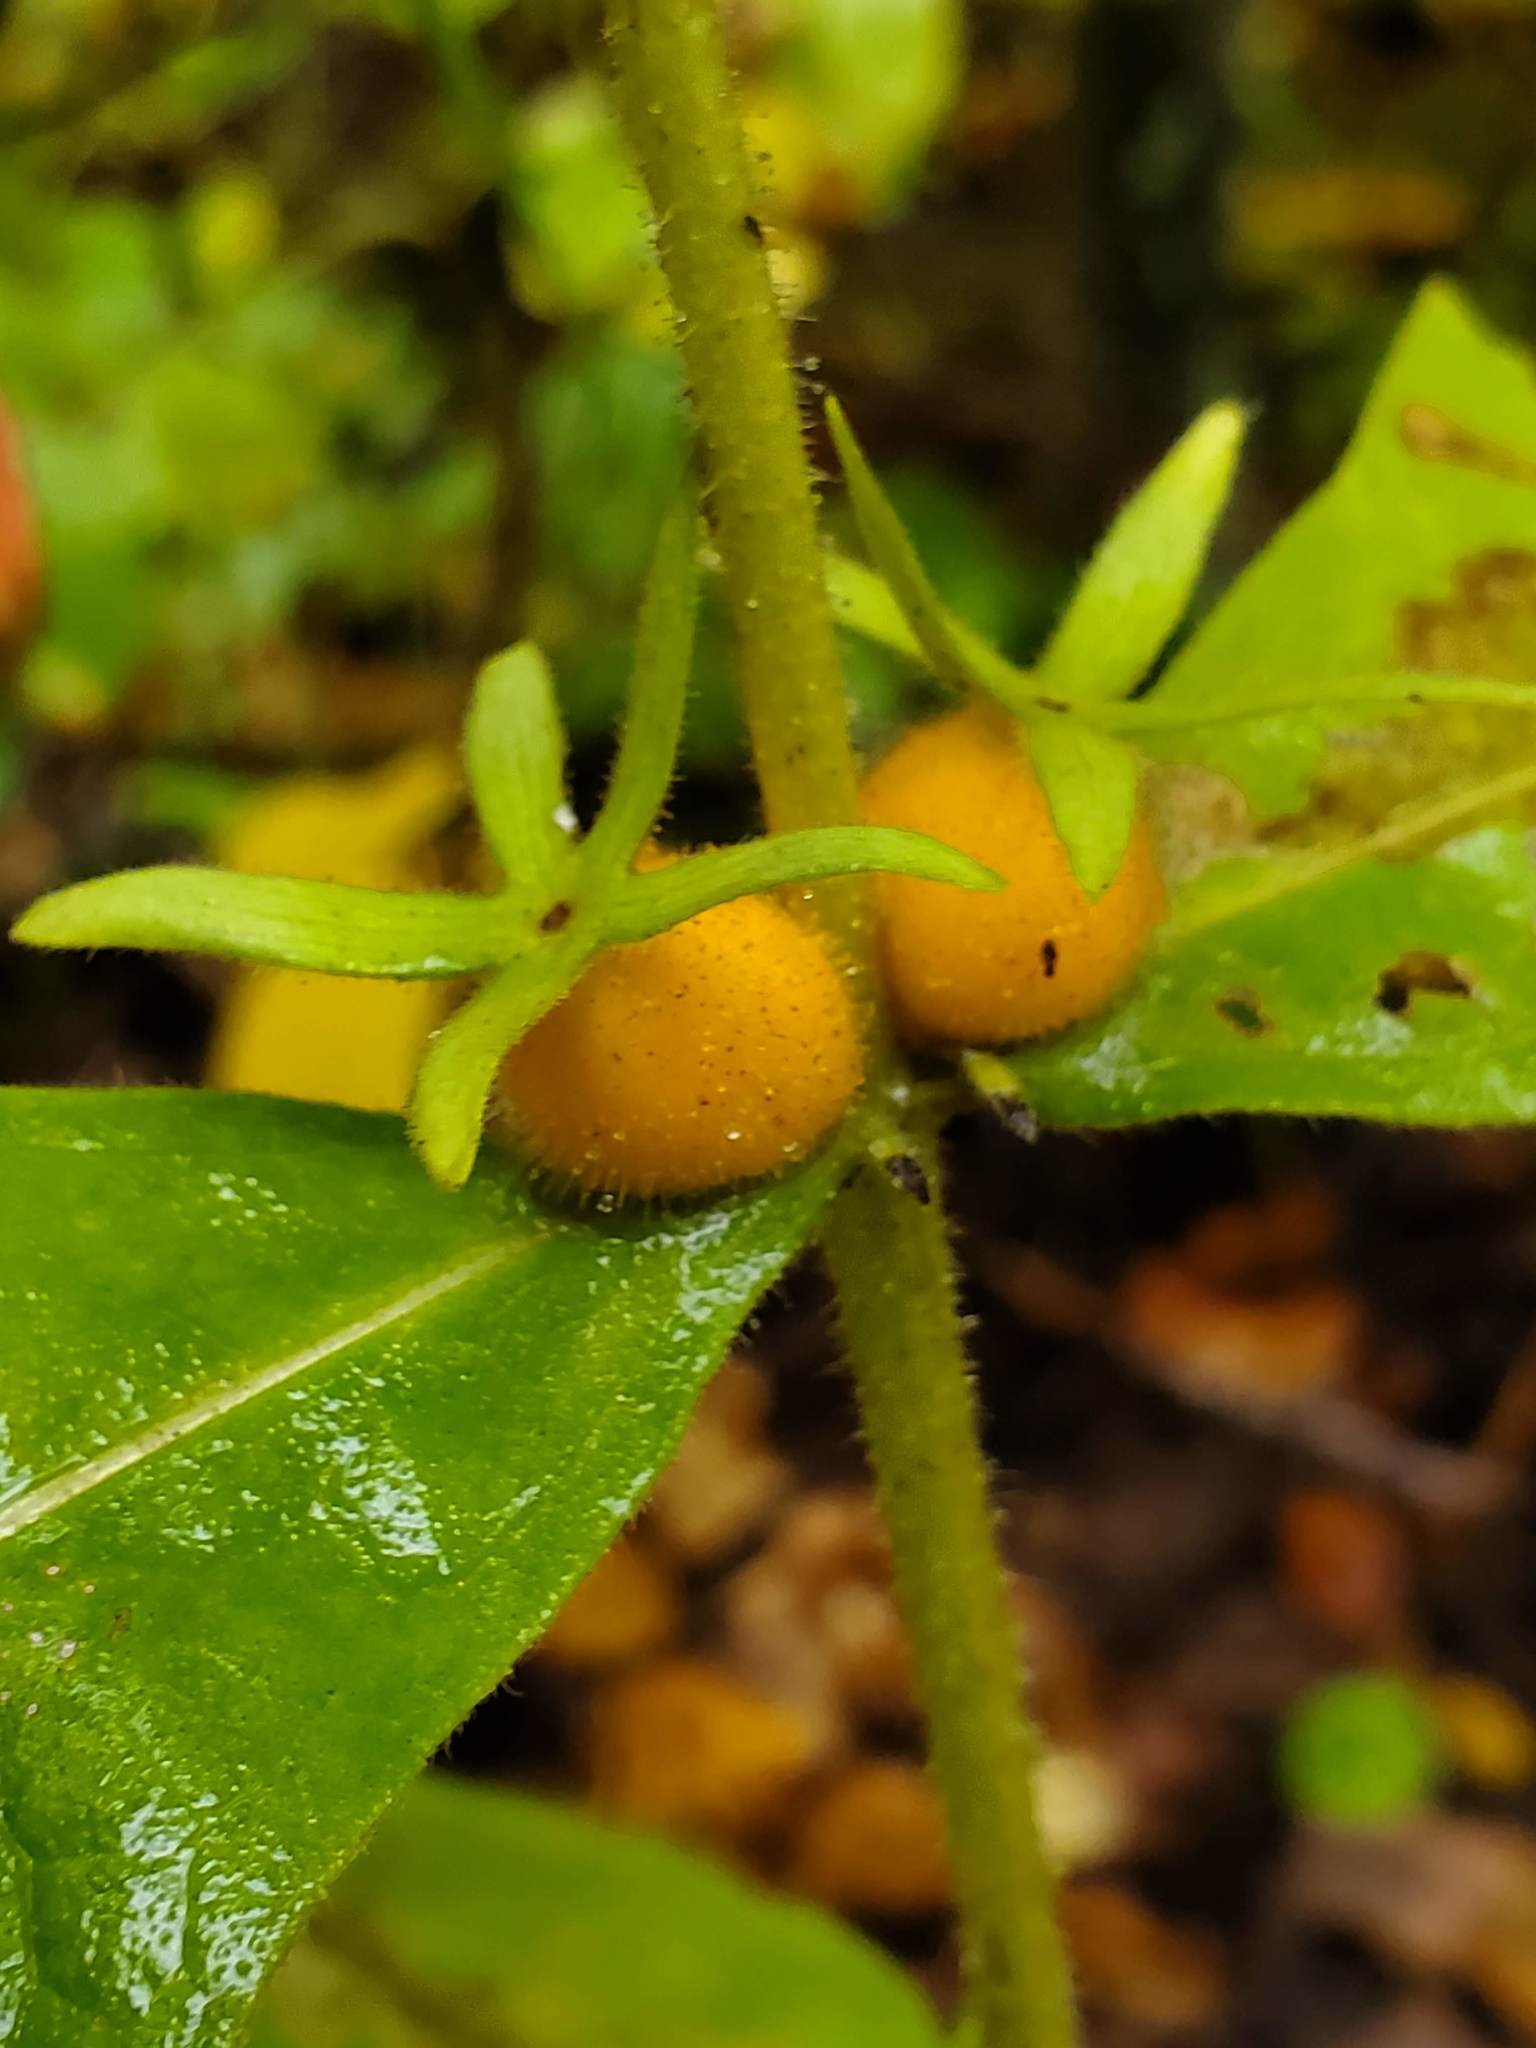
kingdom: Plantae
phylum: Tracheophyta
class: Magnoliopsida
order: Dipsacales
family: Caprifoliaceae
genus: Triosteum
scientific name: Triosteum aurantiacum
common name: Coffee tinker's-weed
